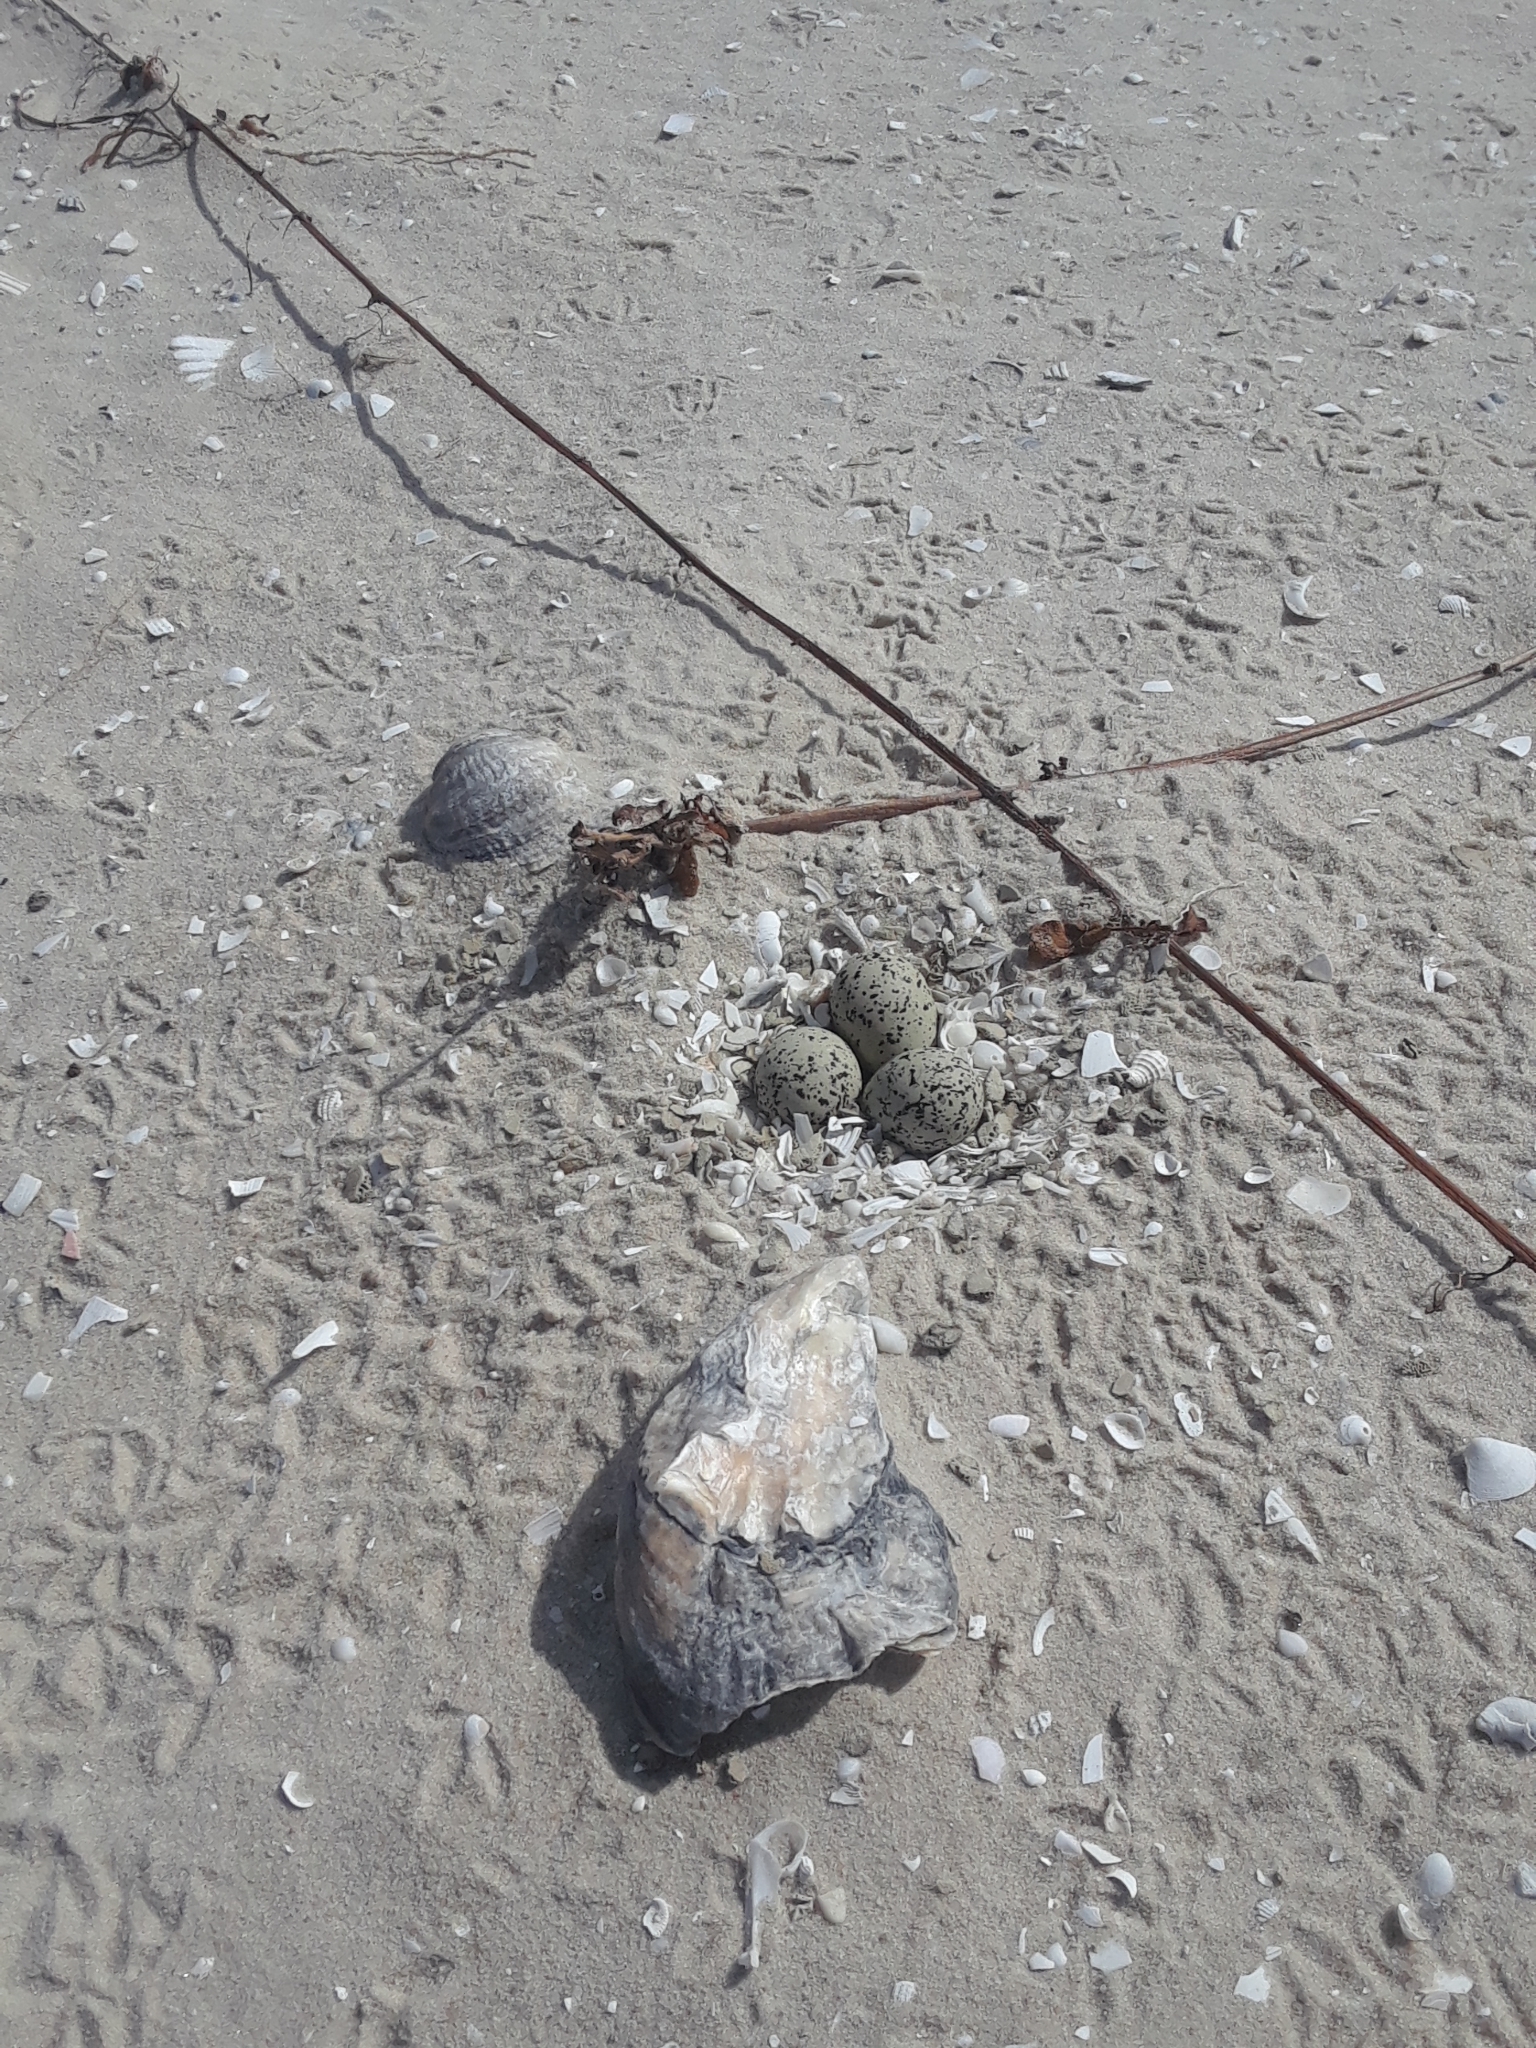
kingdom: Animalia
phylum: Chordata
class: Aves
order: Charadriiformes
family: Charadriidae
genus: Anarhynchus
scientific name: Anarhynchus
